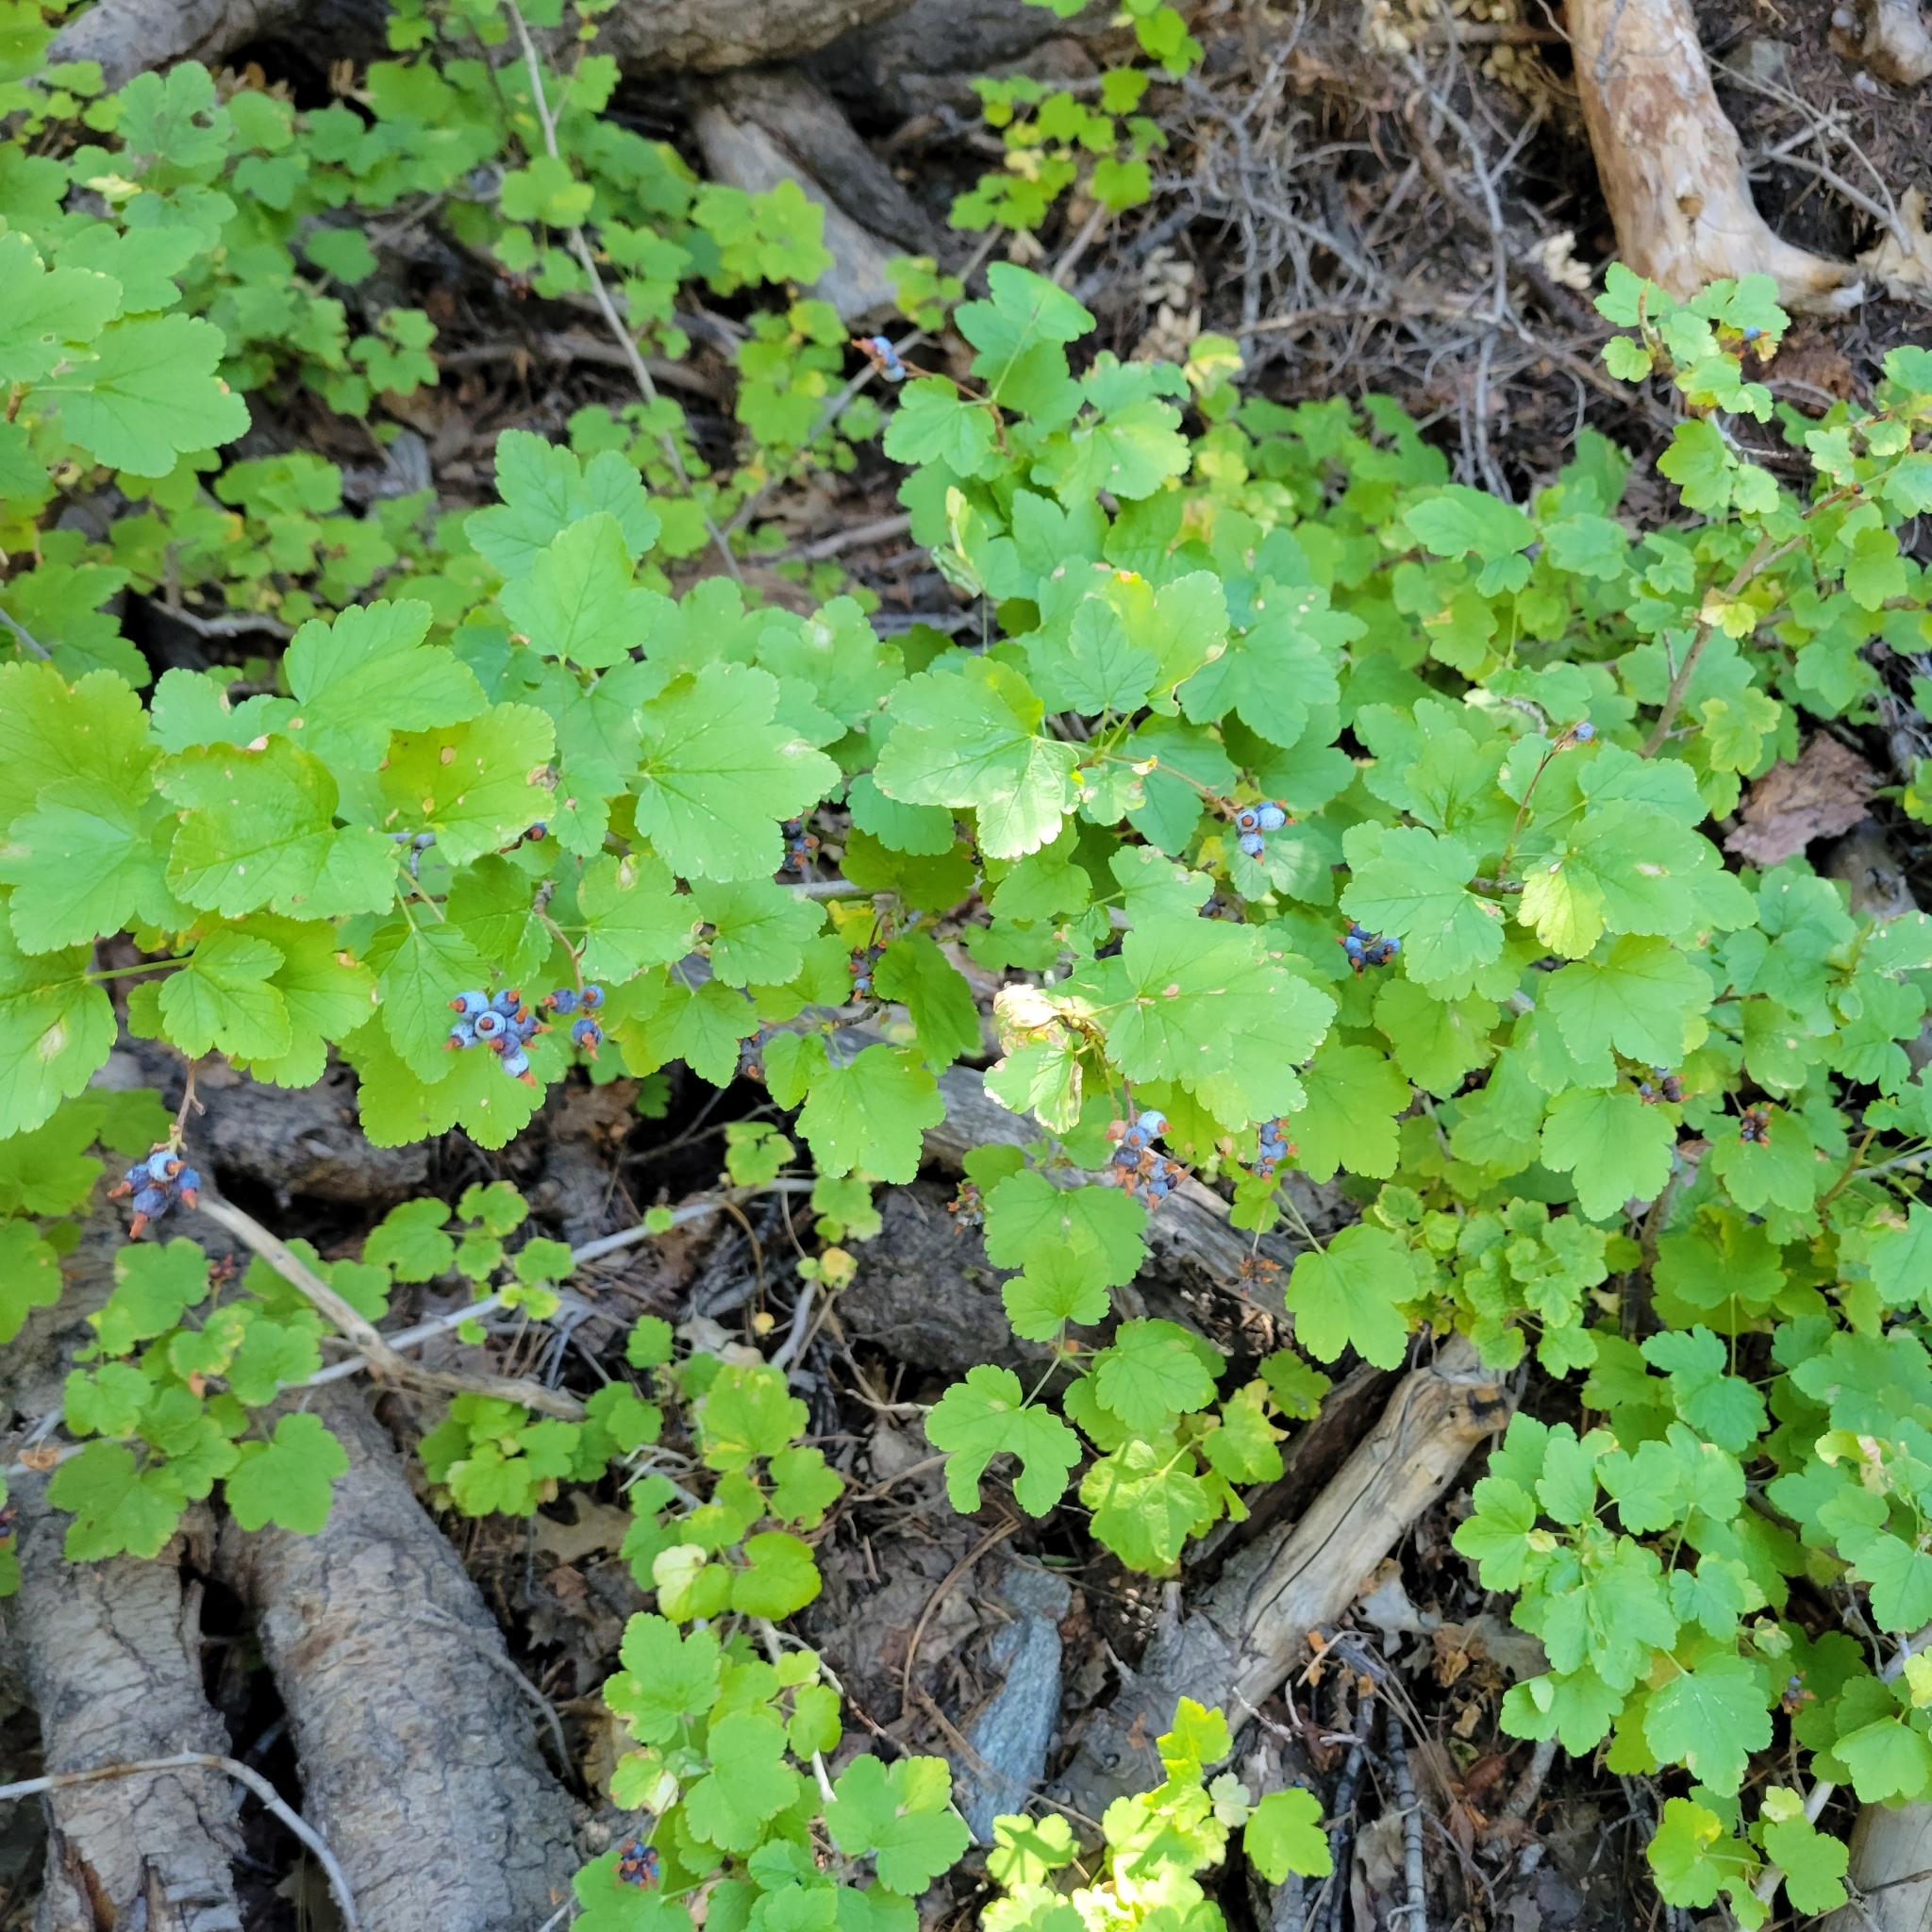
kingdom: Plantae
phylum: Tracheophyta
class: Magnoliopsida
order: Saxifragales
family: Grossulariaceae
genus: Ribes
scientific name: Ribes nevadense
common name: Mountain pink currant
